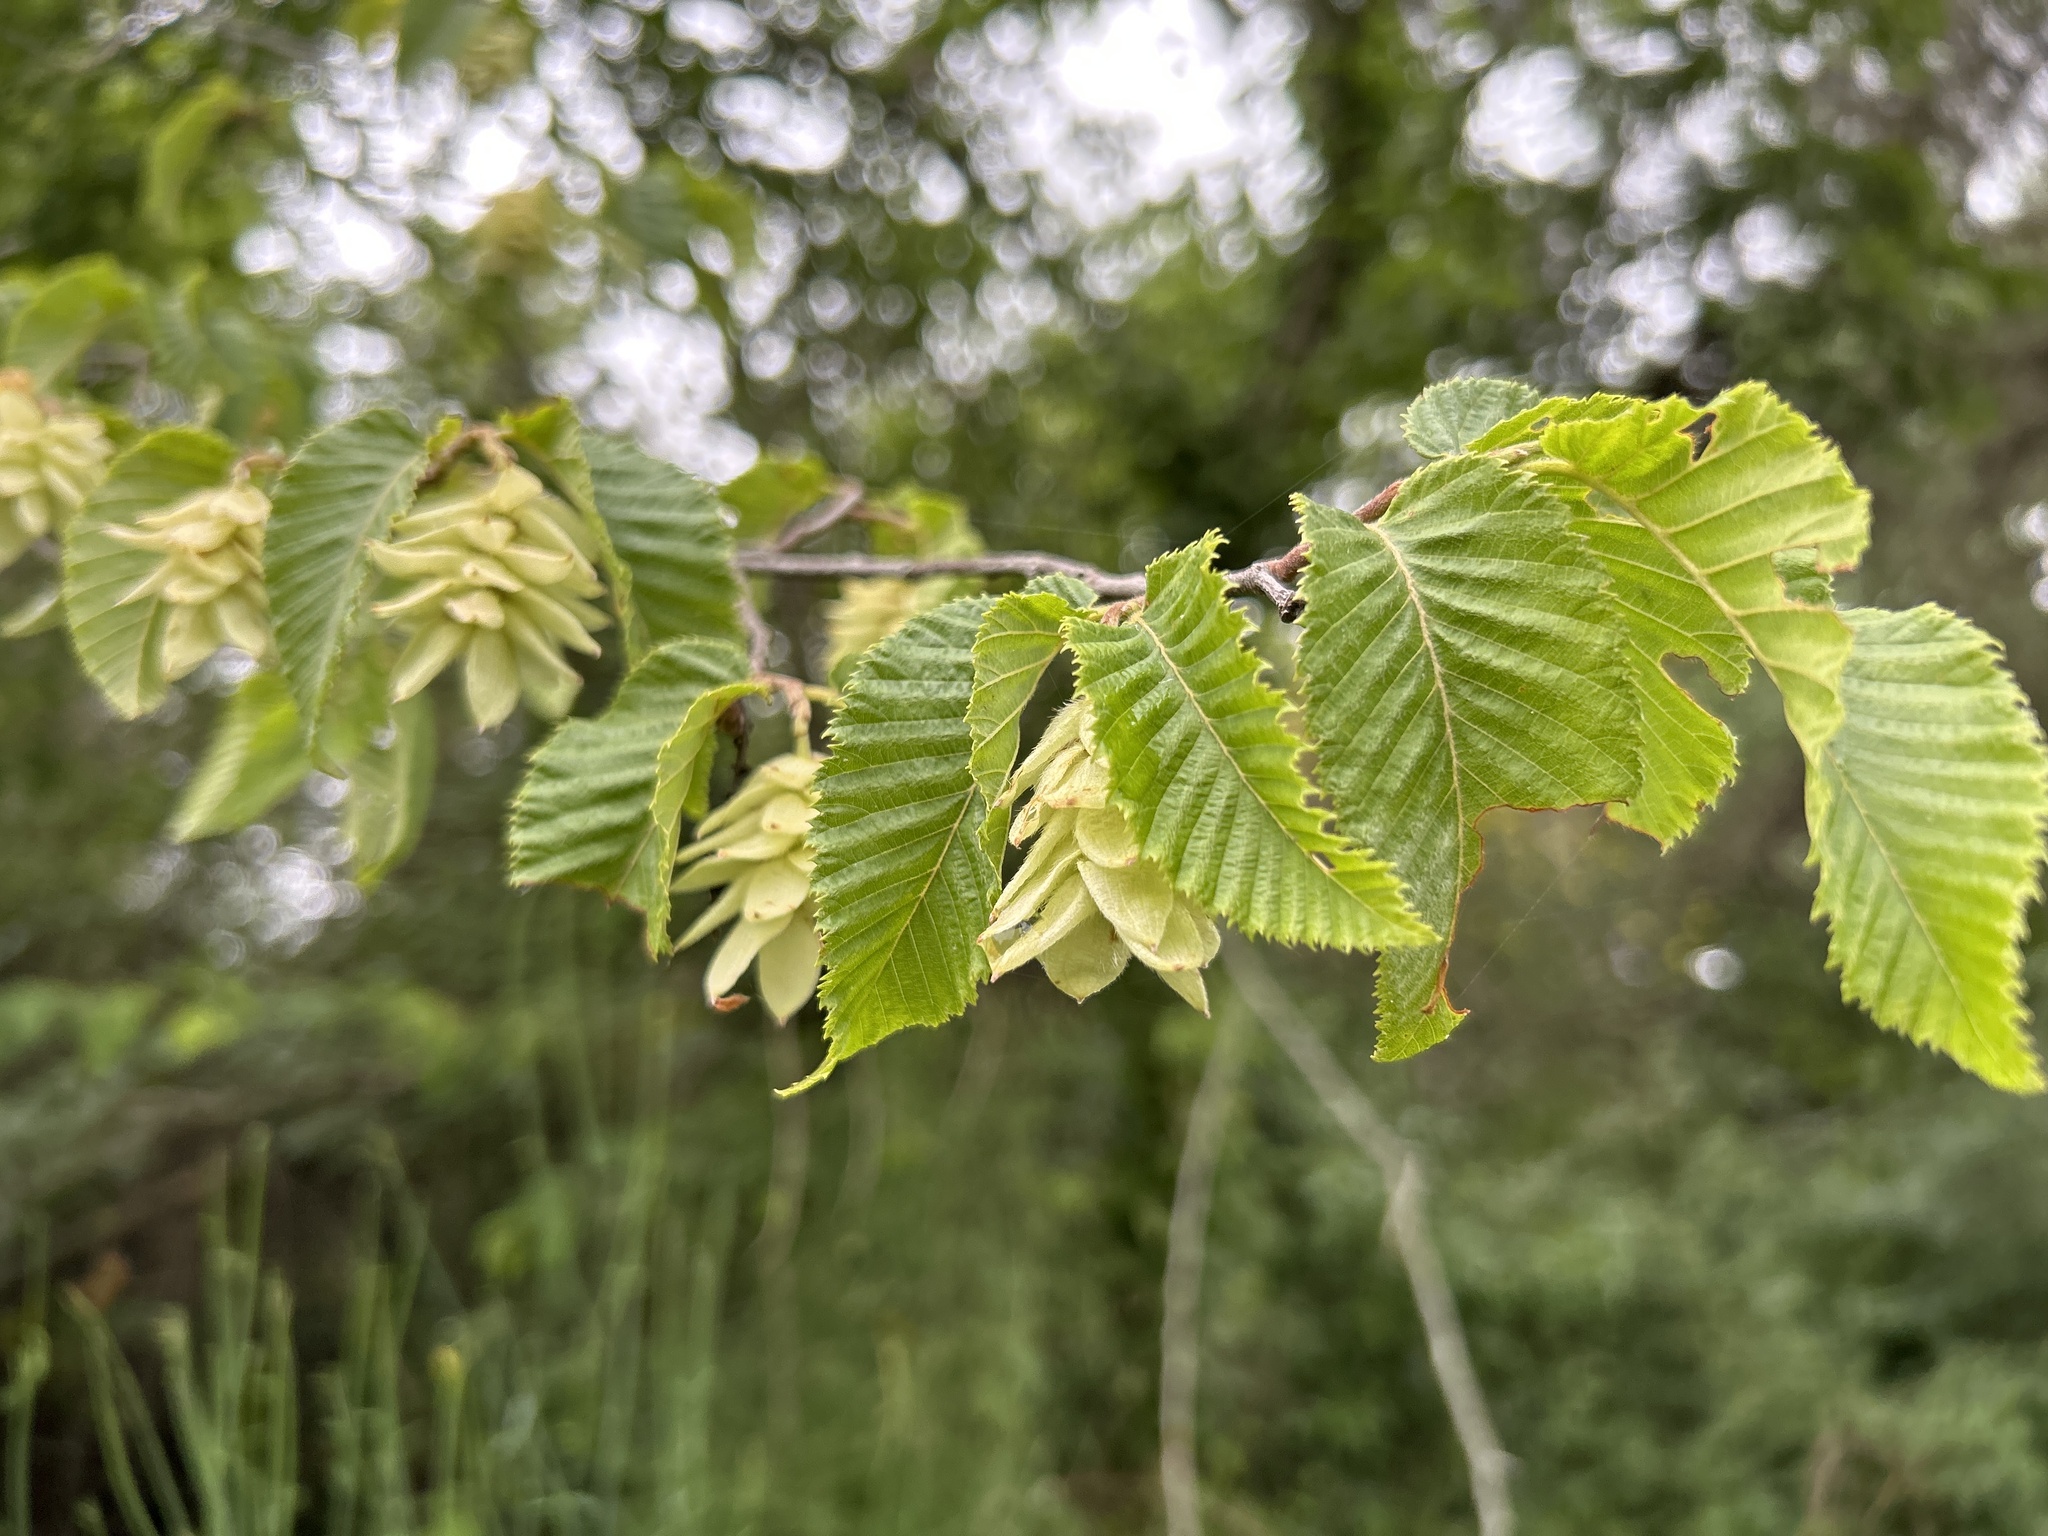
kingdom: Plantae
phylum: Tracheophyta
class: Magnoliopsida
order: Fagales
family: Betulaceae
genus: Ostrya
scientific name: Ostrya carpinifolia
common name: European hop-hornbeam
